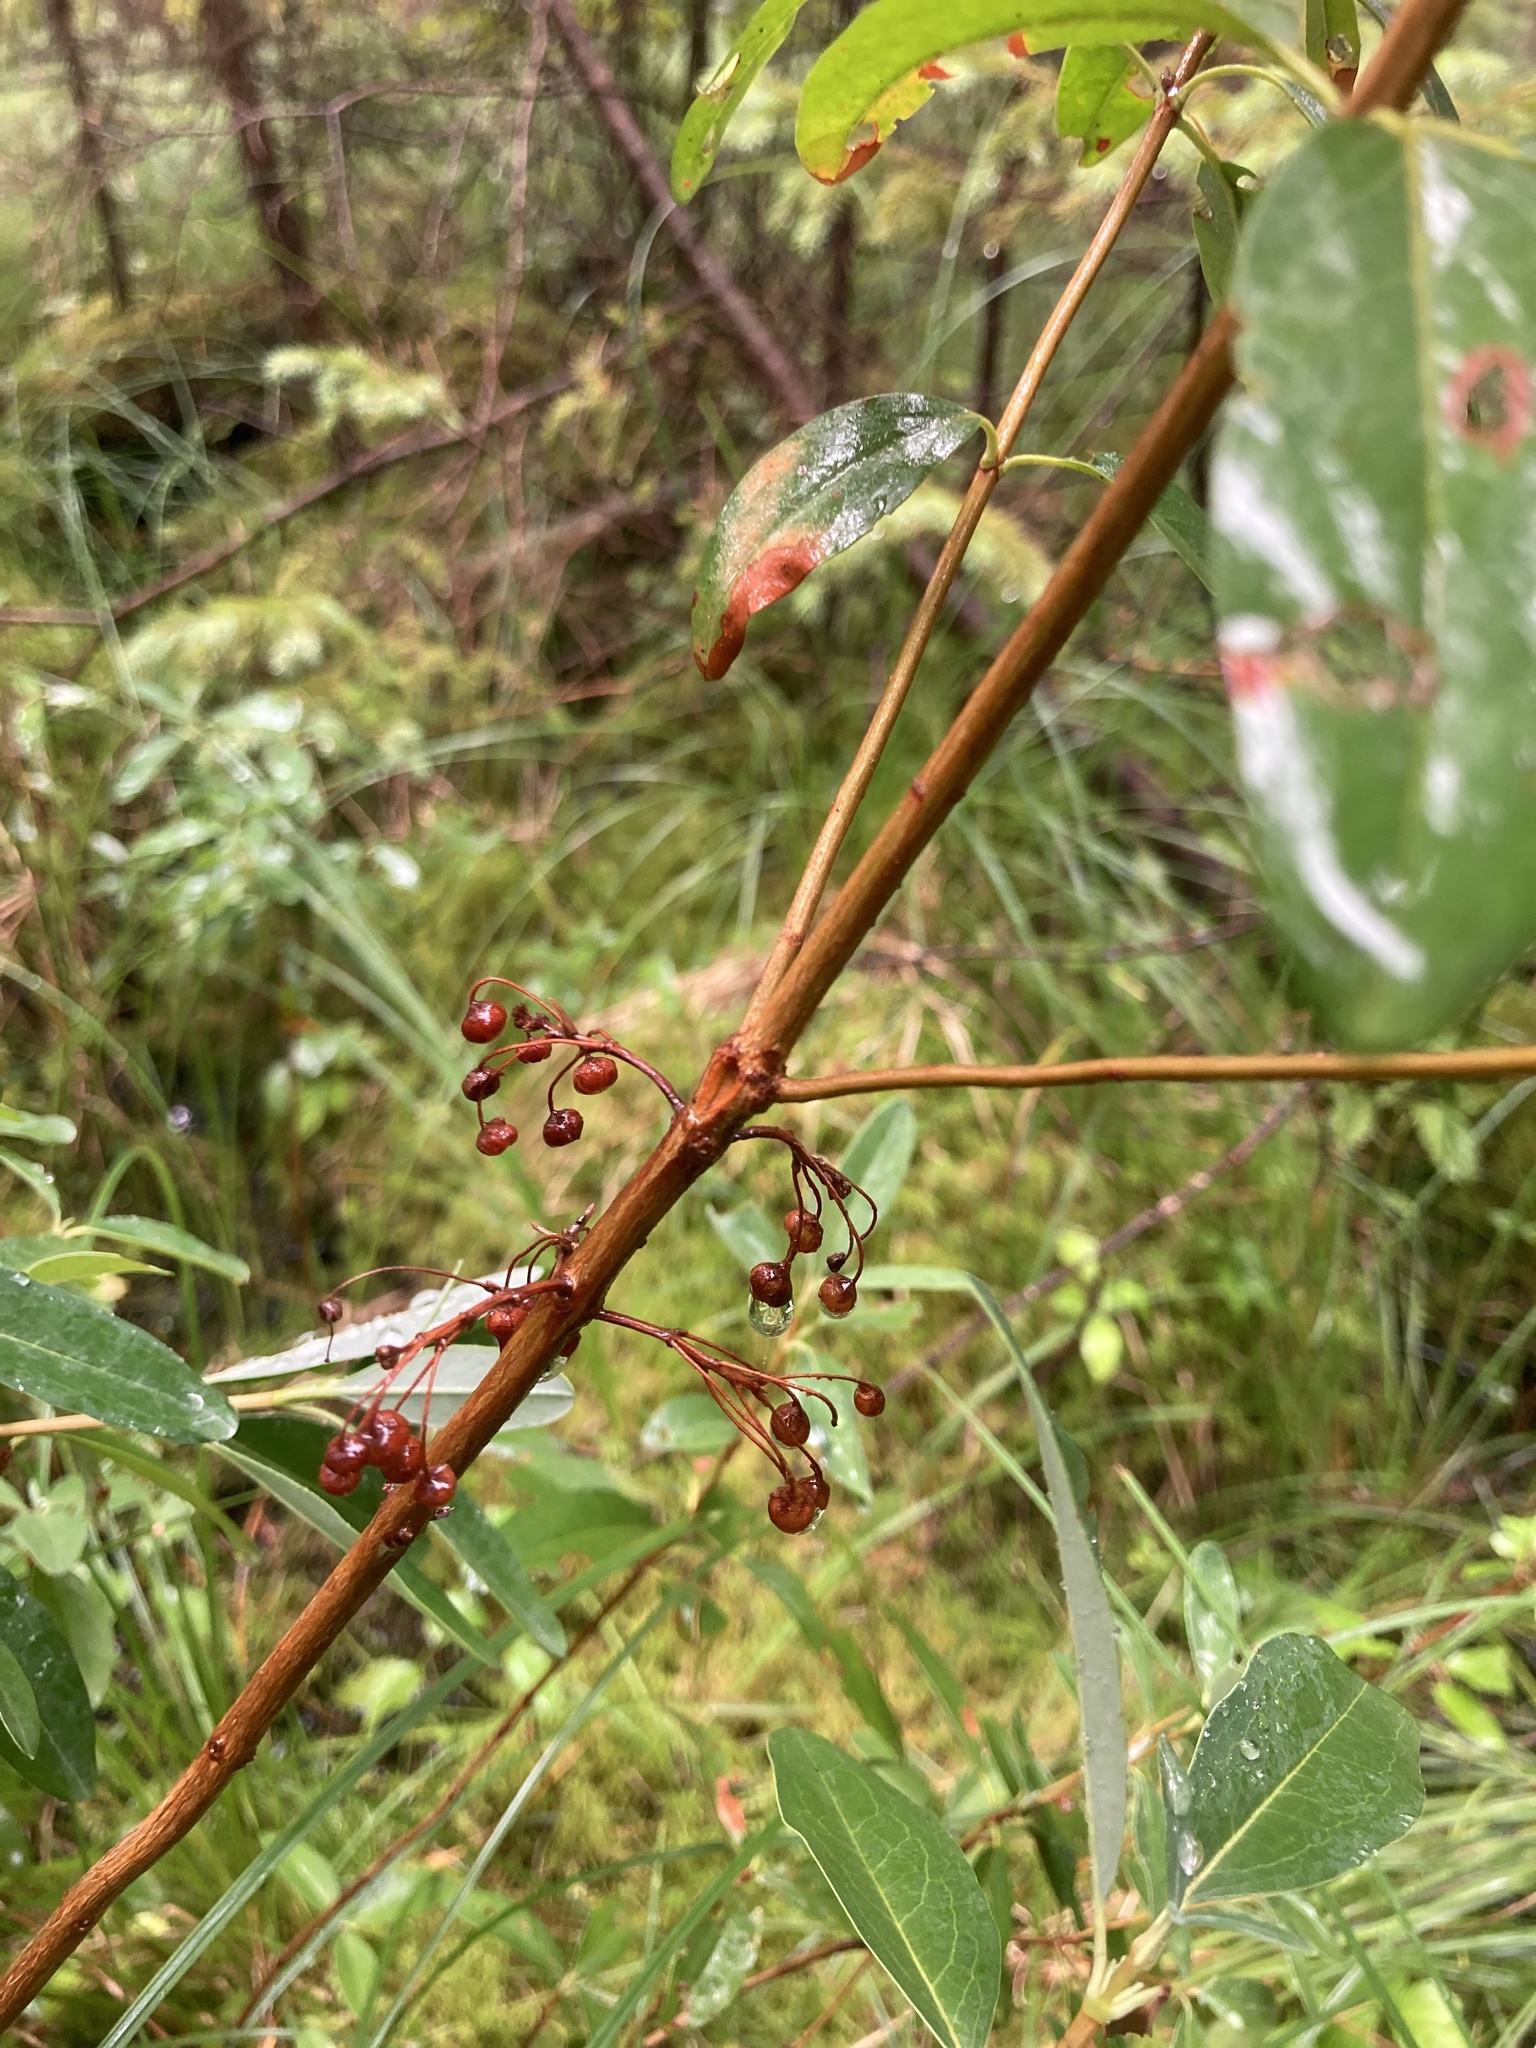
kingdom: Plantae
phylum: Tracheophyta
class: Magnoliopsida
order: Ericales
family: Ericaceae
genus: Kalmia
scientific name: Kalmia angustifolia
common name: Sheep-laurel
